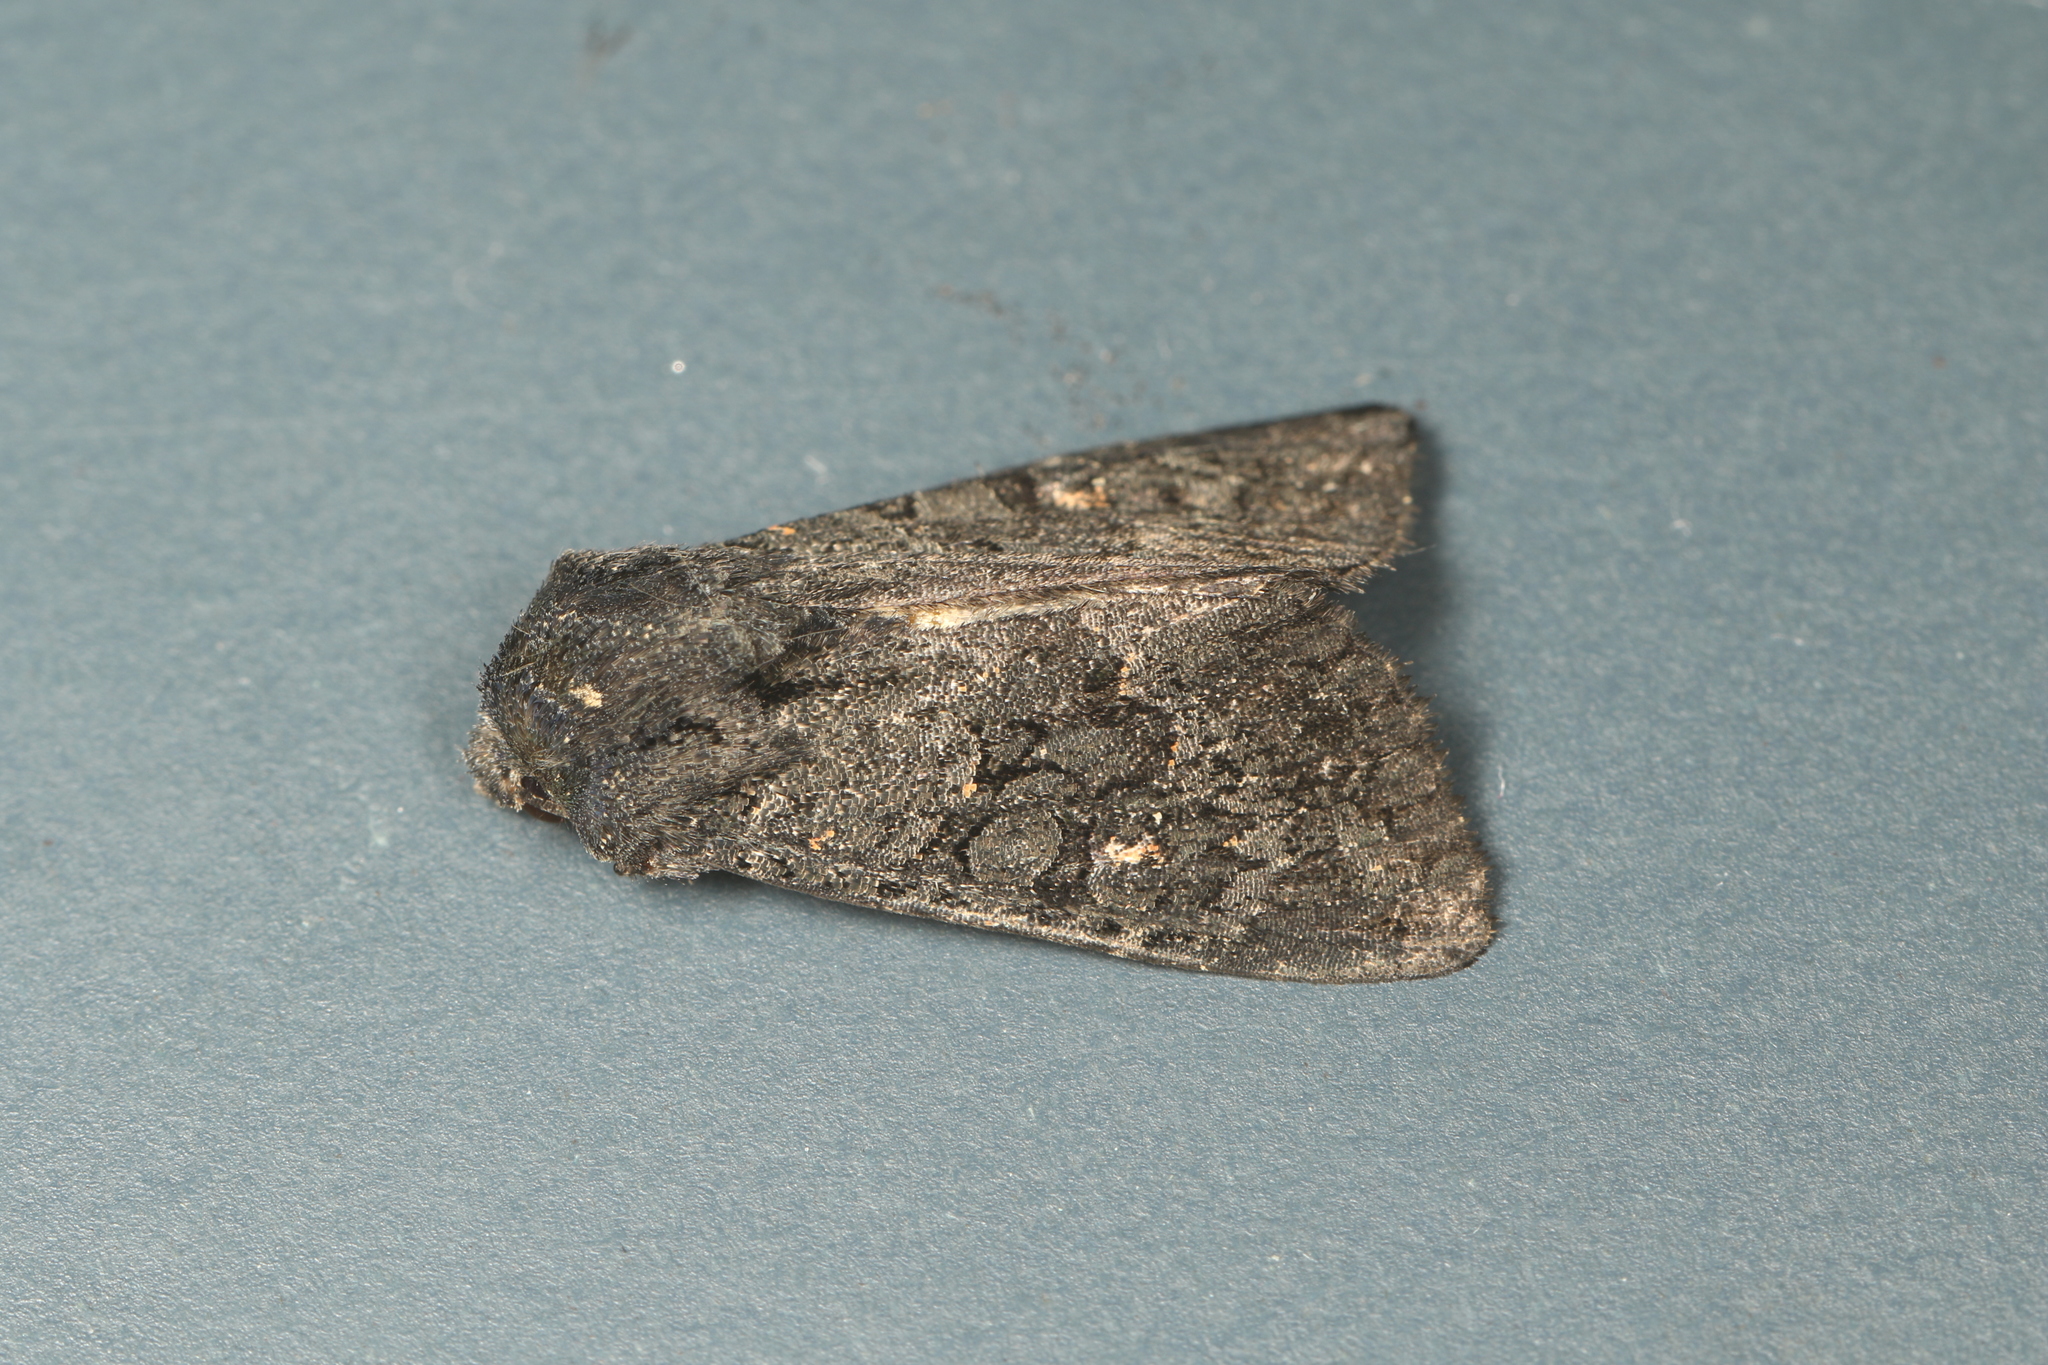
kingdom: Animalia
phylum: Arthropoda
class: Insecta
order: Lepidoptera
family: Noctuidae
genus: Neumichtis
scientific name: Neumichtis nigerrima
